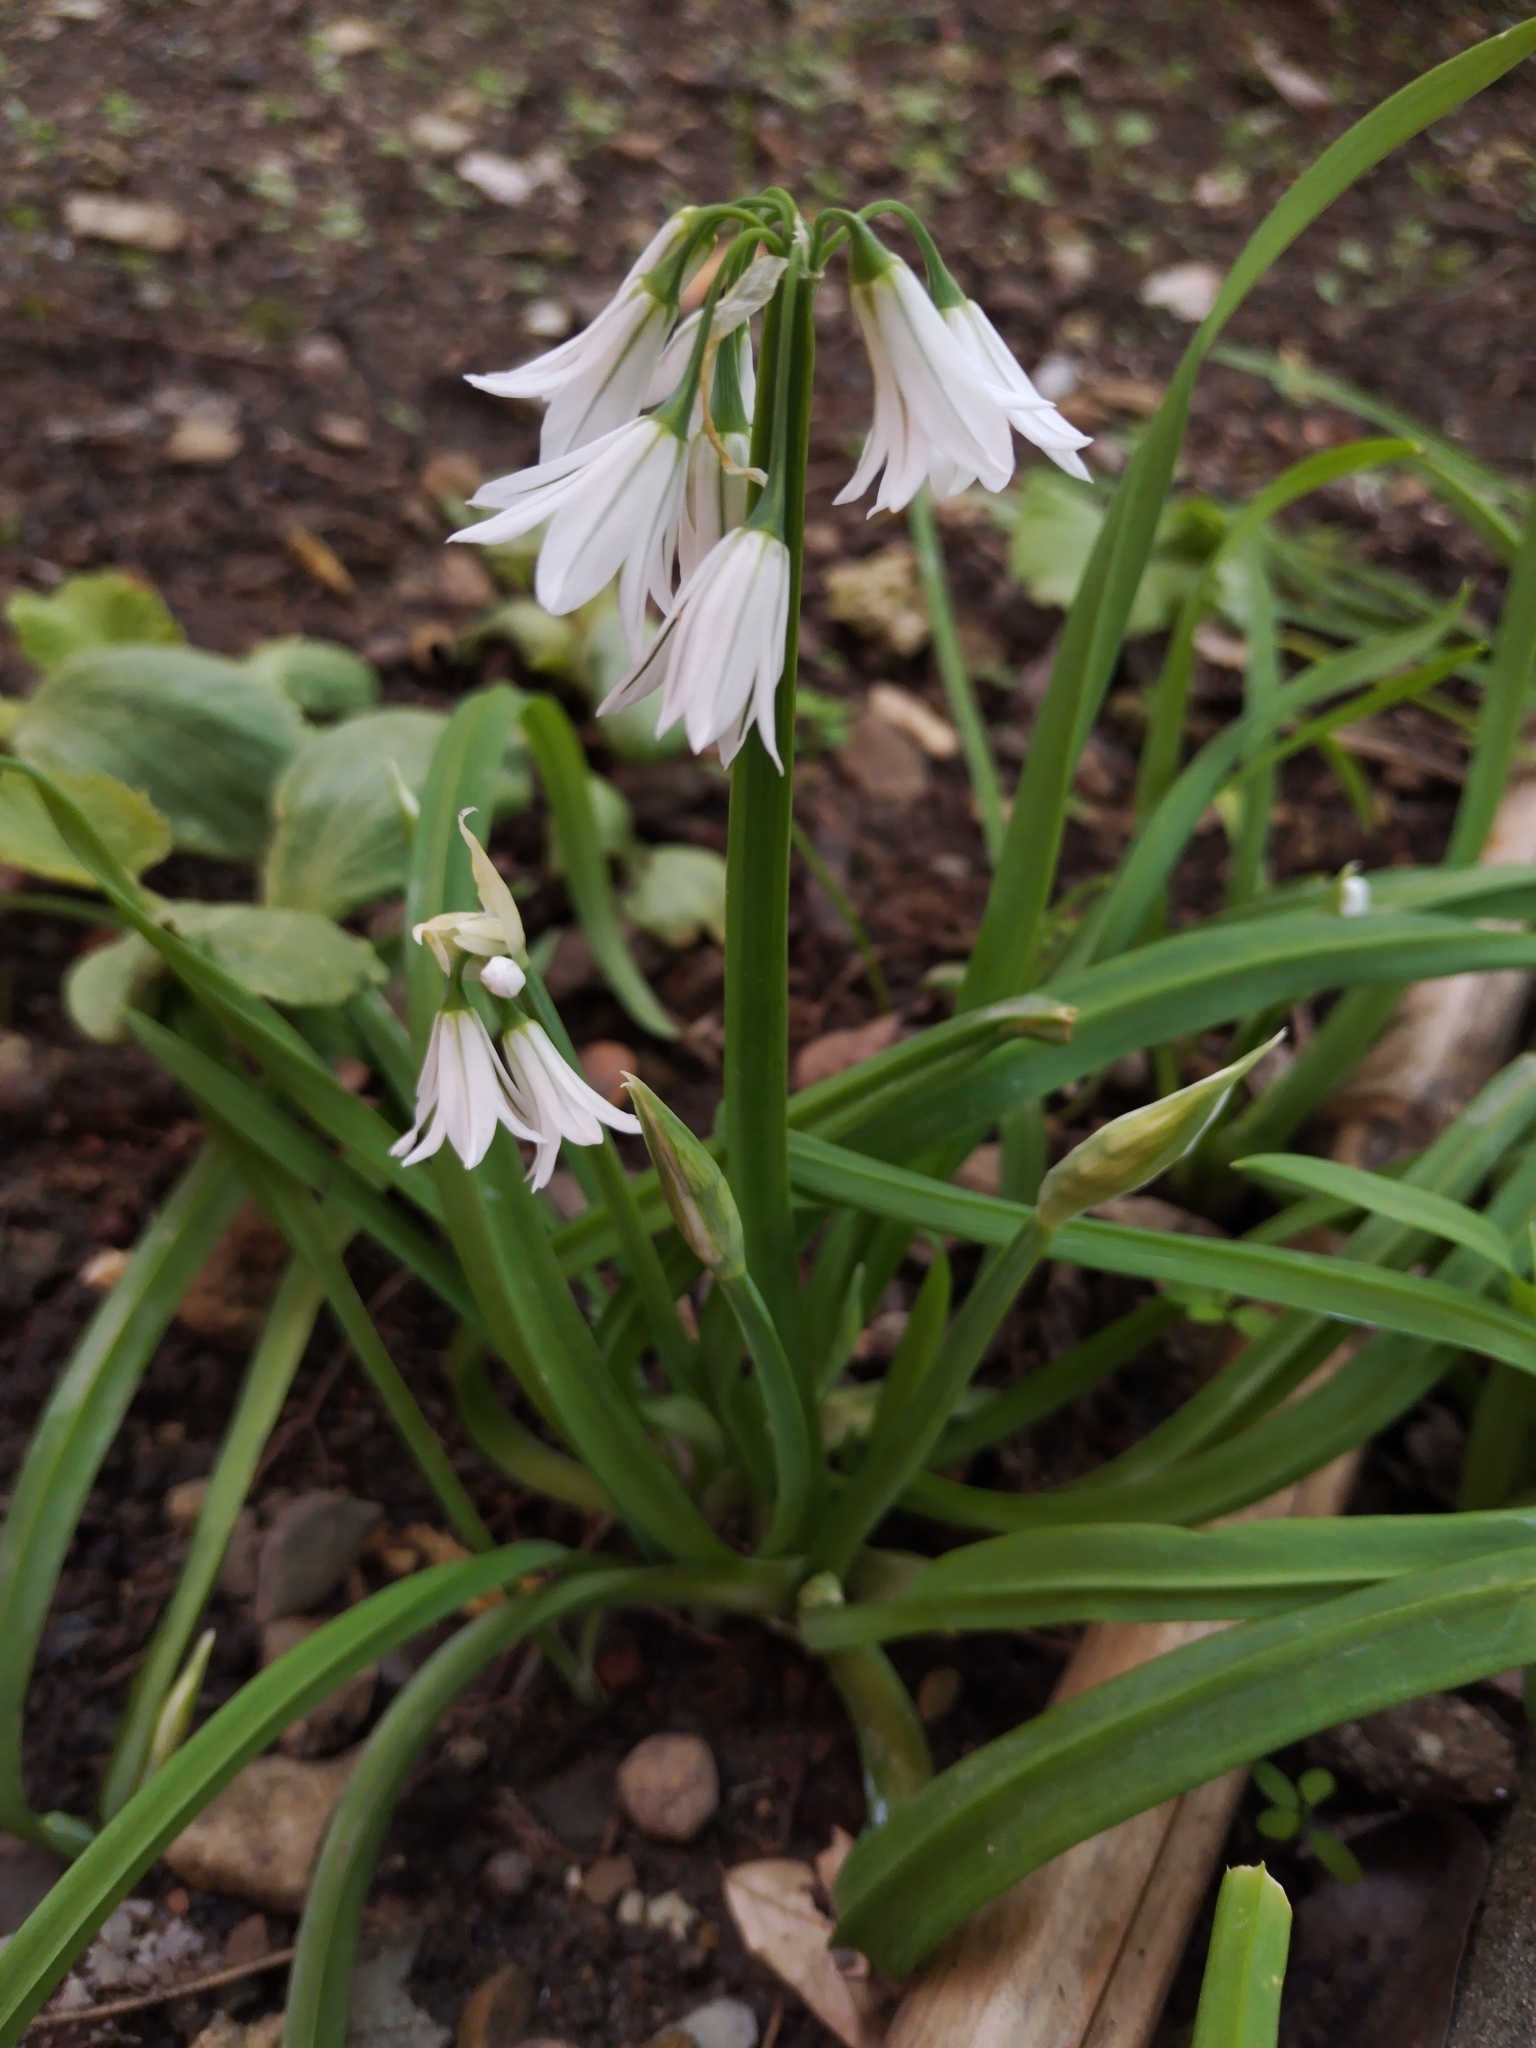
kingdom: Plantae
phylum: Tracheophyta
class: Liliopsida
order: Asparagales
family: Amaryllidaceae
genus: Allium
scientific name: Allium triquetrum
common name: Three-cornered garlic
